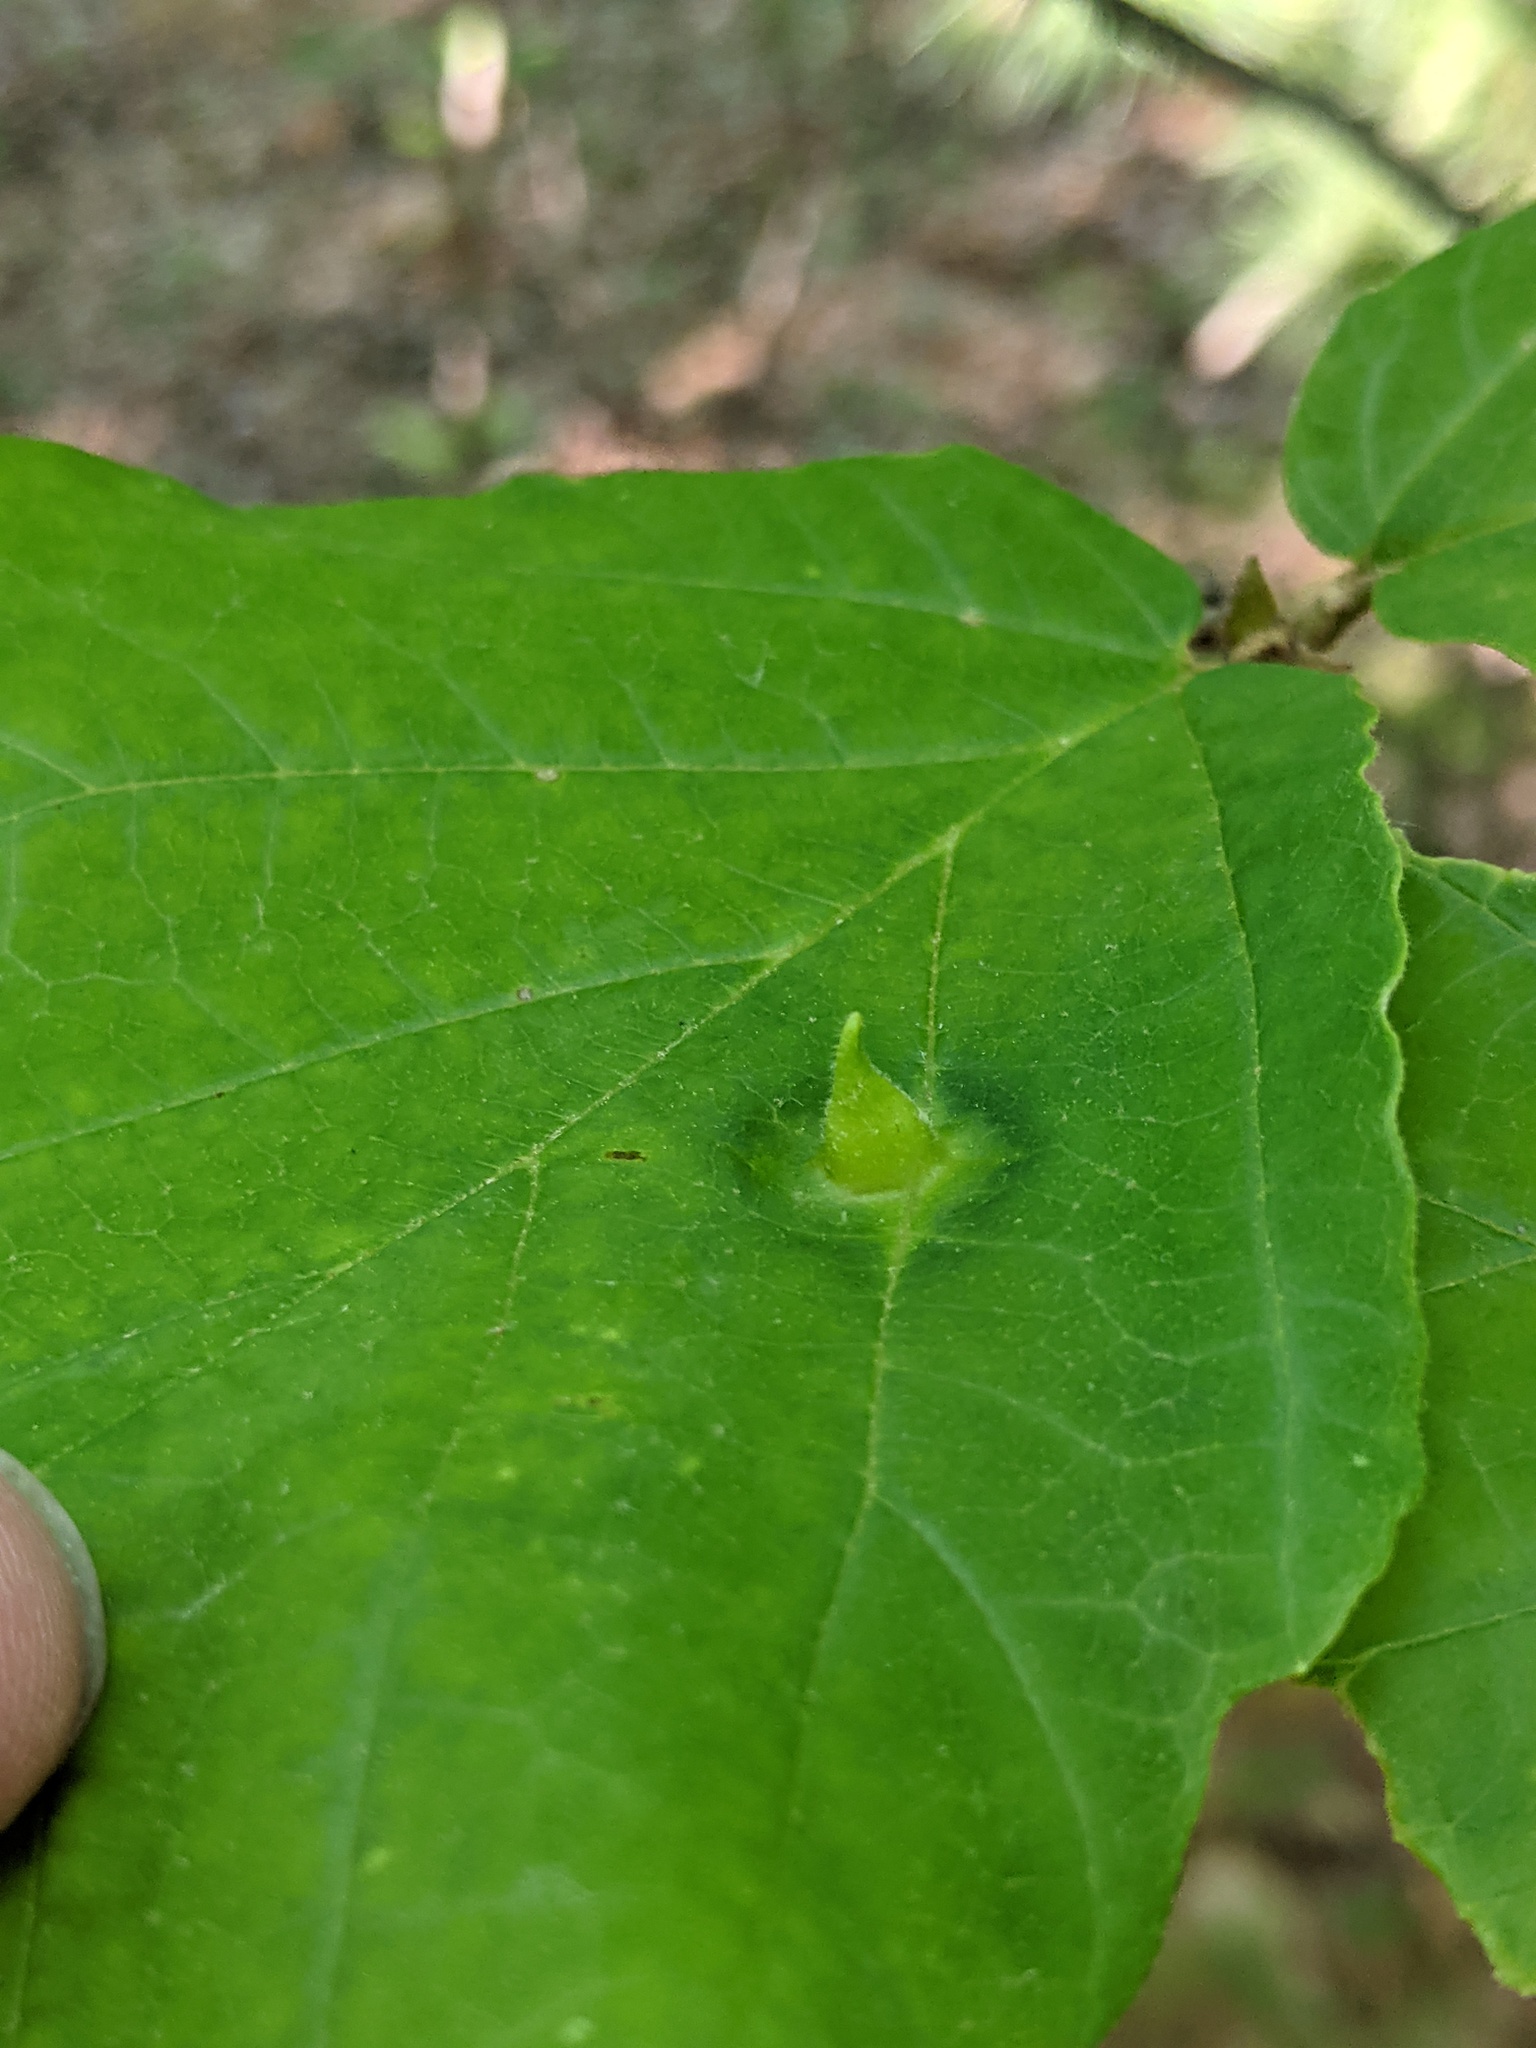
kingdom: Animalia
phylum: Arthropoda
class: Insecta
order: Hemiptera
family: Aphididae
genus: Hormaphis
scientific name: Hormaphis hamamelidis
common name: Witch-hazel cone gall aphid
